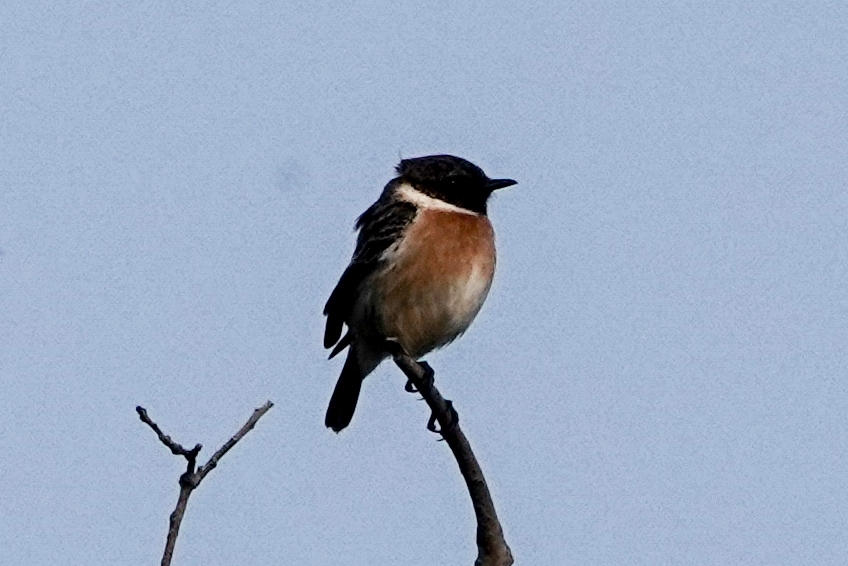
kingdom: Animalia
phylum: Chordata
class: Aves
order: Passeriformes
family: Muscicapidae
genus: Saxicola
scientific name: Saxicola rubicola
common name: European stonechat
